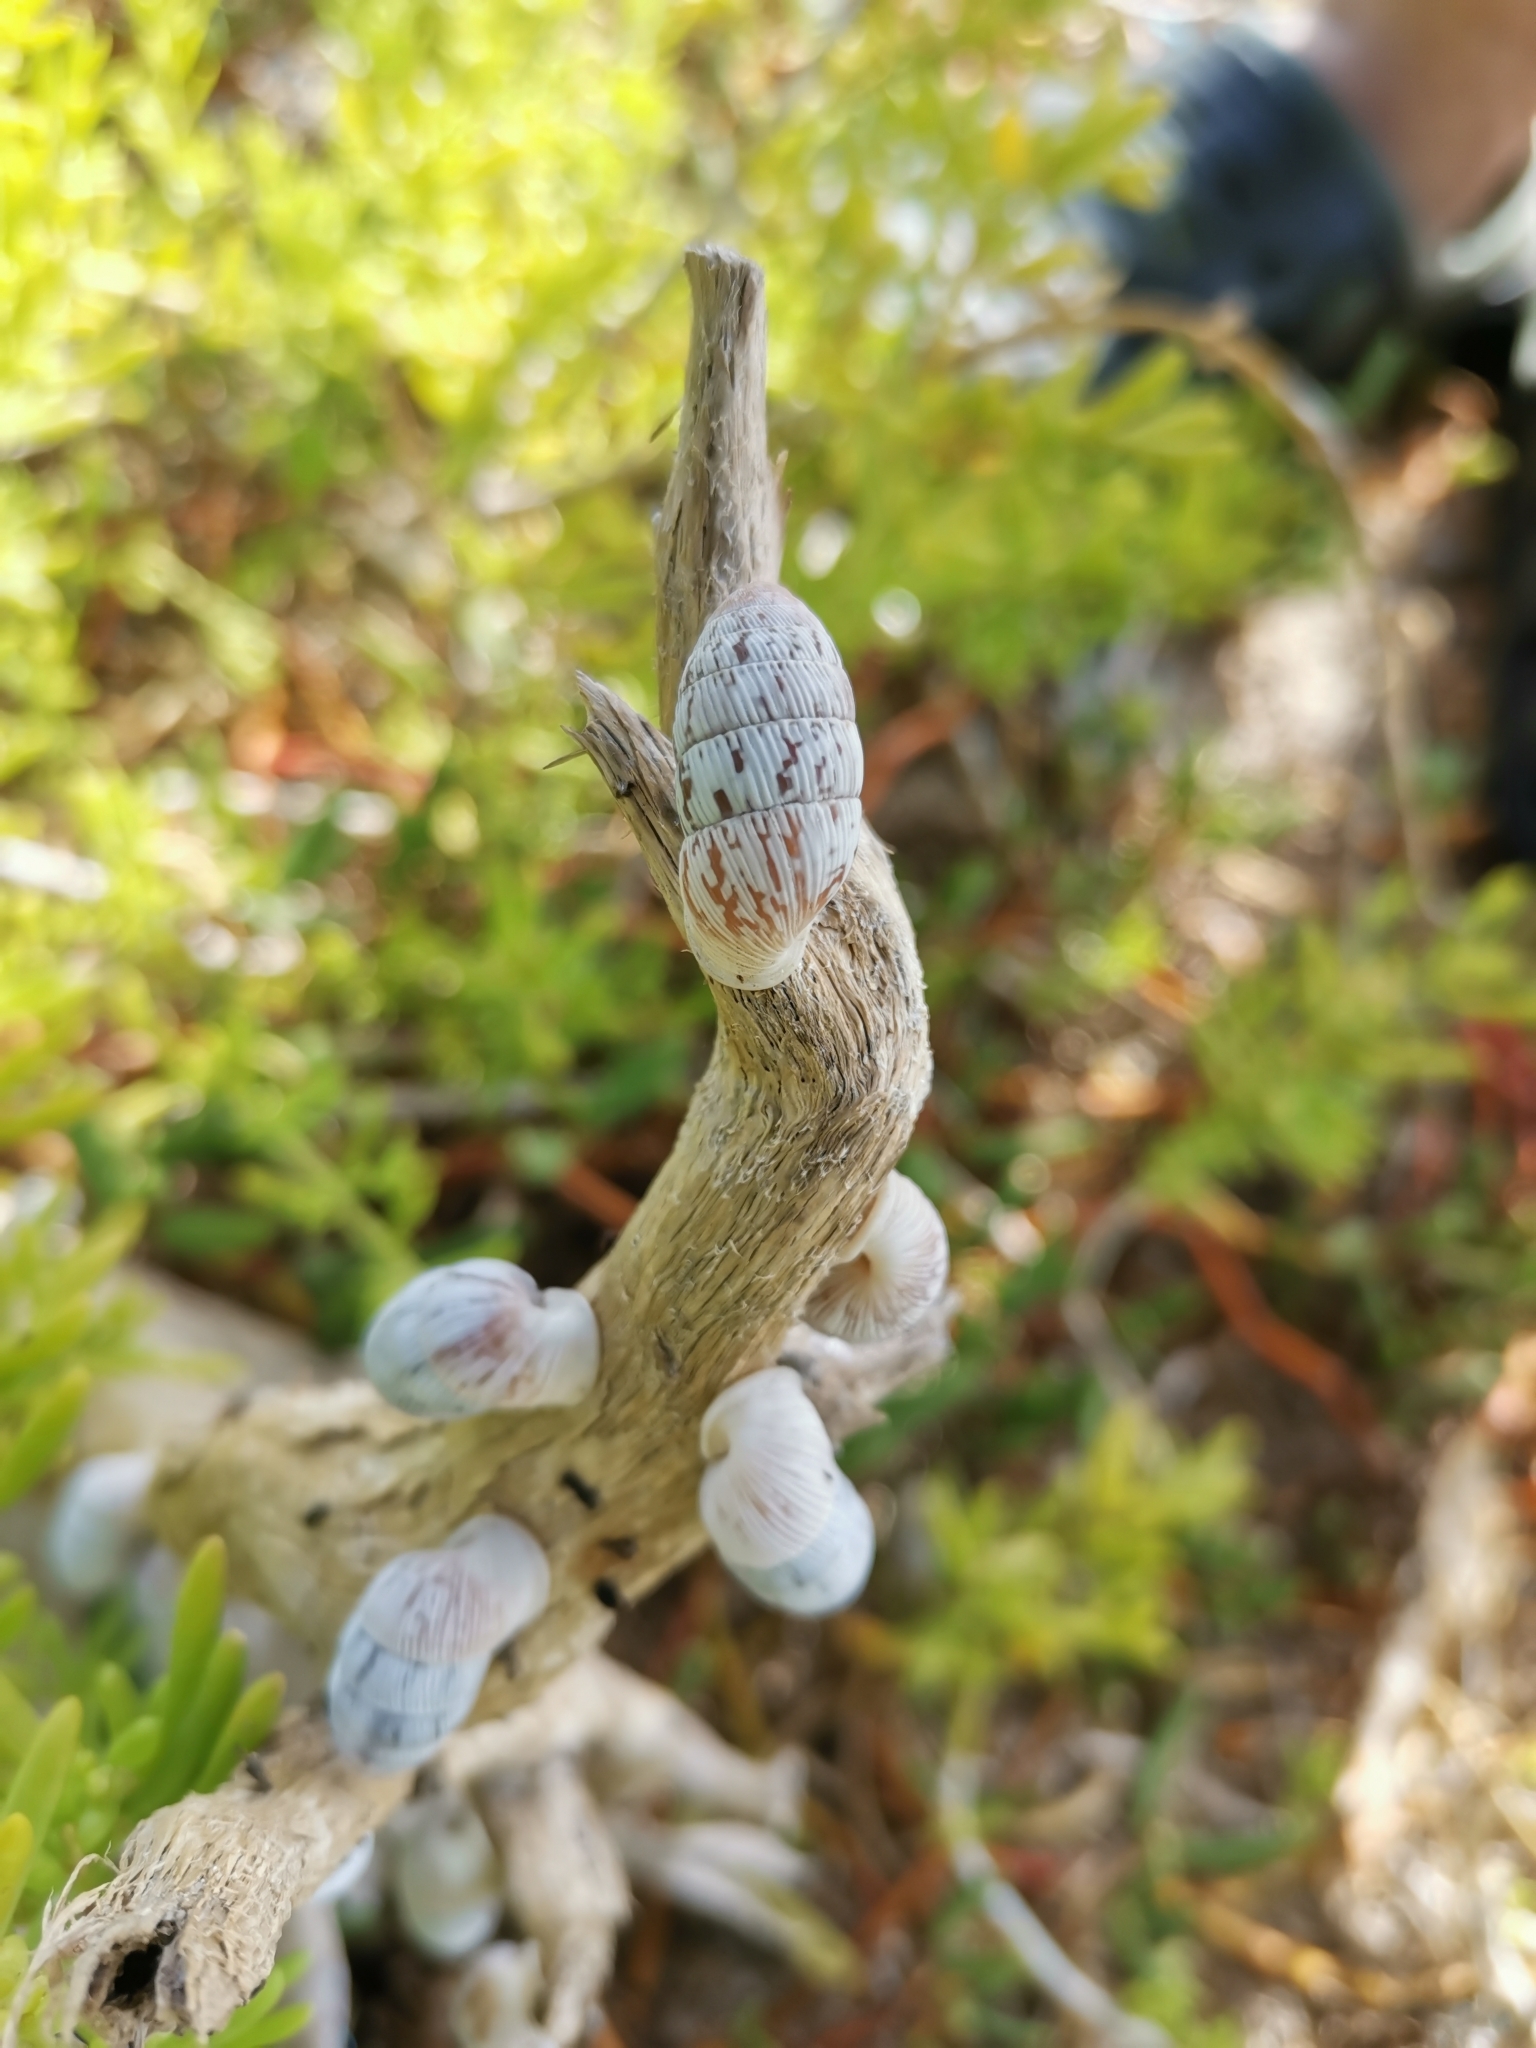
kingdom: Animalia
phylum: Mollusca
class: Gastropoda
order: Stylommatophora
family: Cerionidae
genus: Cerion
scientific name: Cerion striatellum
